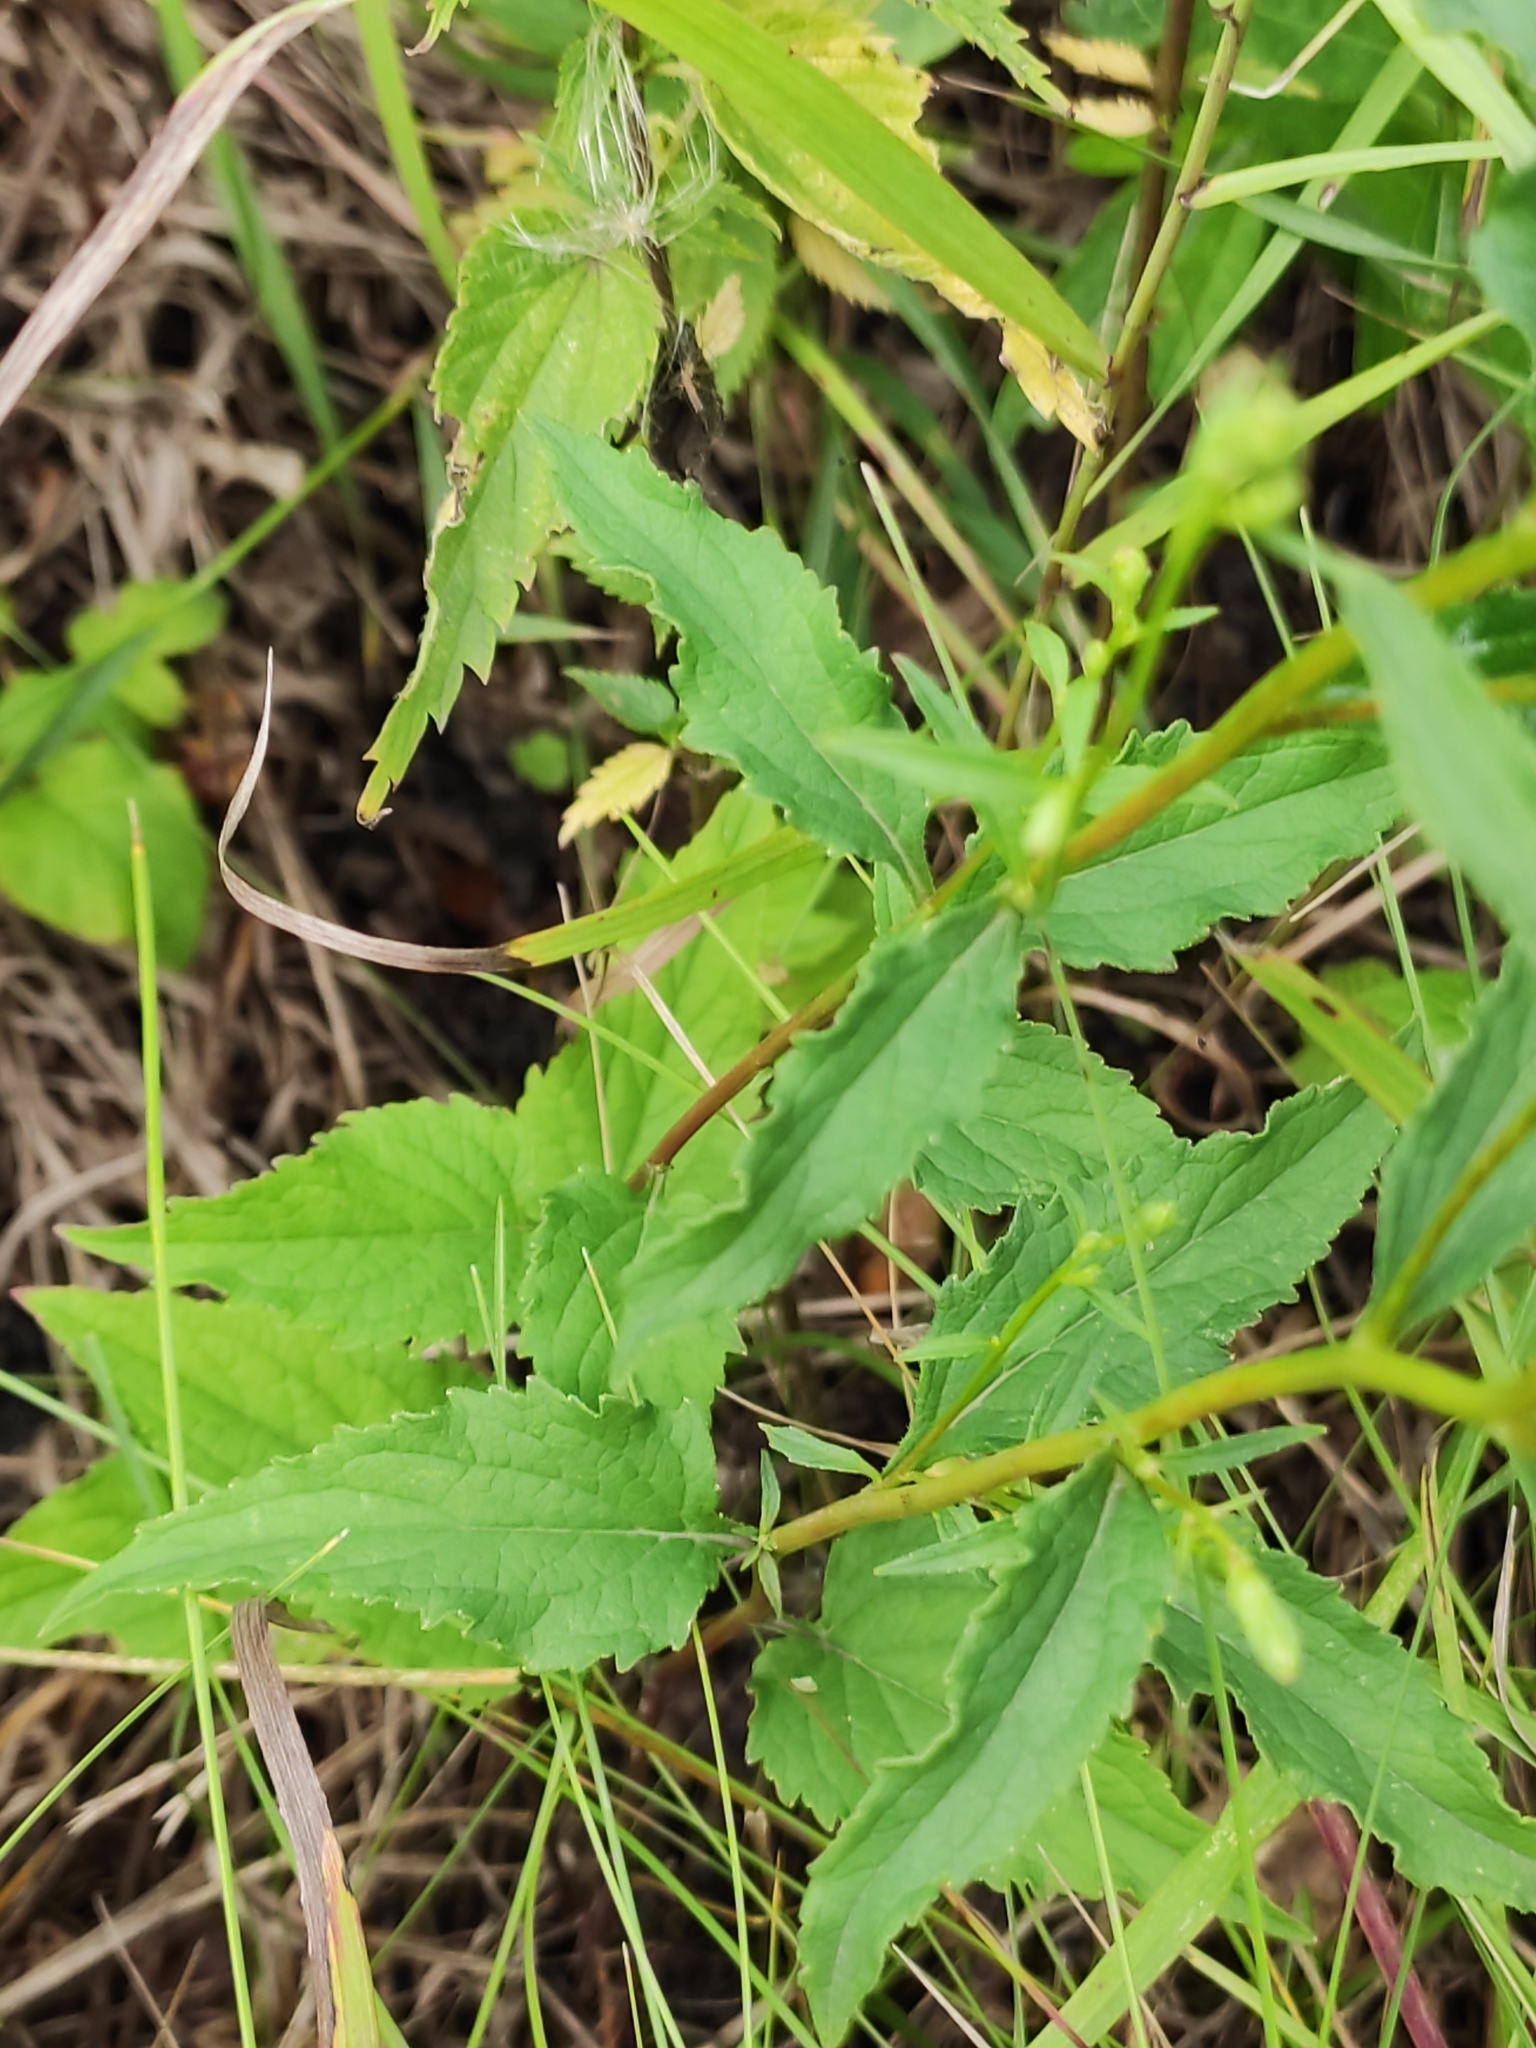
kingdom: Plantae
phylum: Tracheophyta
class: Magnoliopsida
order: Asterales
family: Campanulaceae
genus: Campanula
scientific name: Campanula rapunculoides
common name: Creeping bellflower
